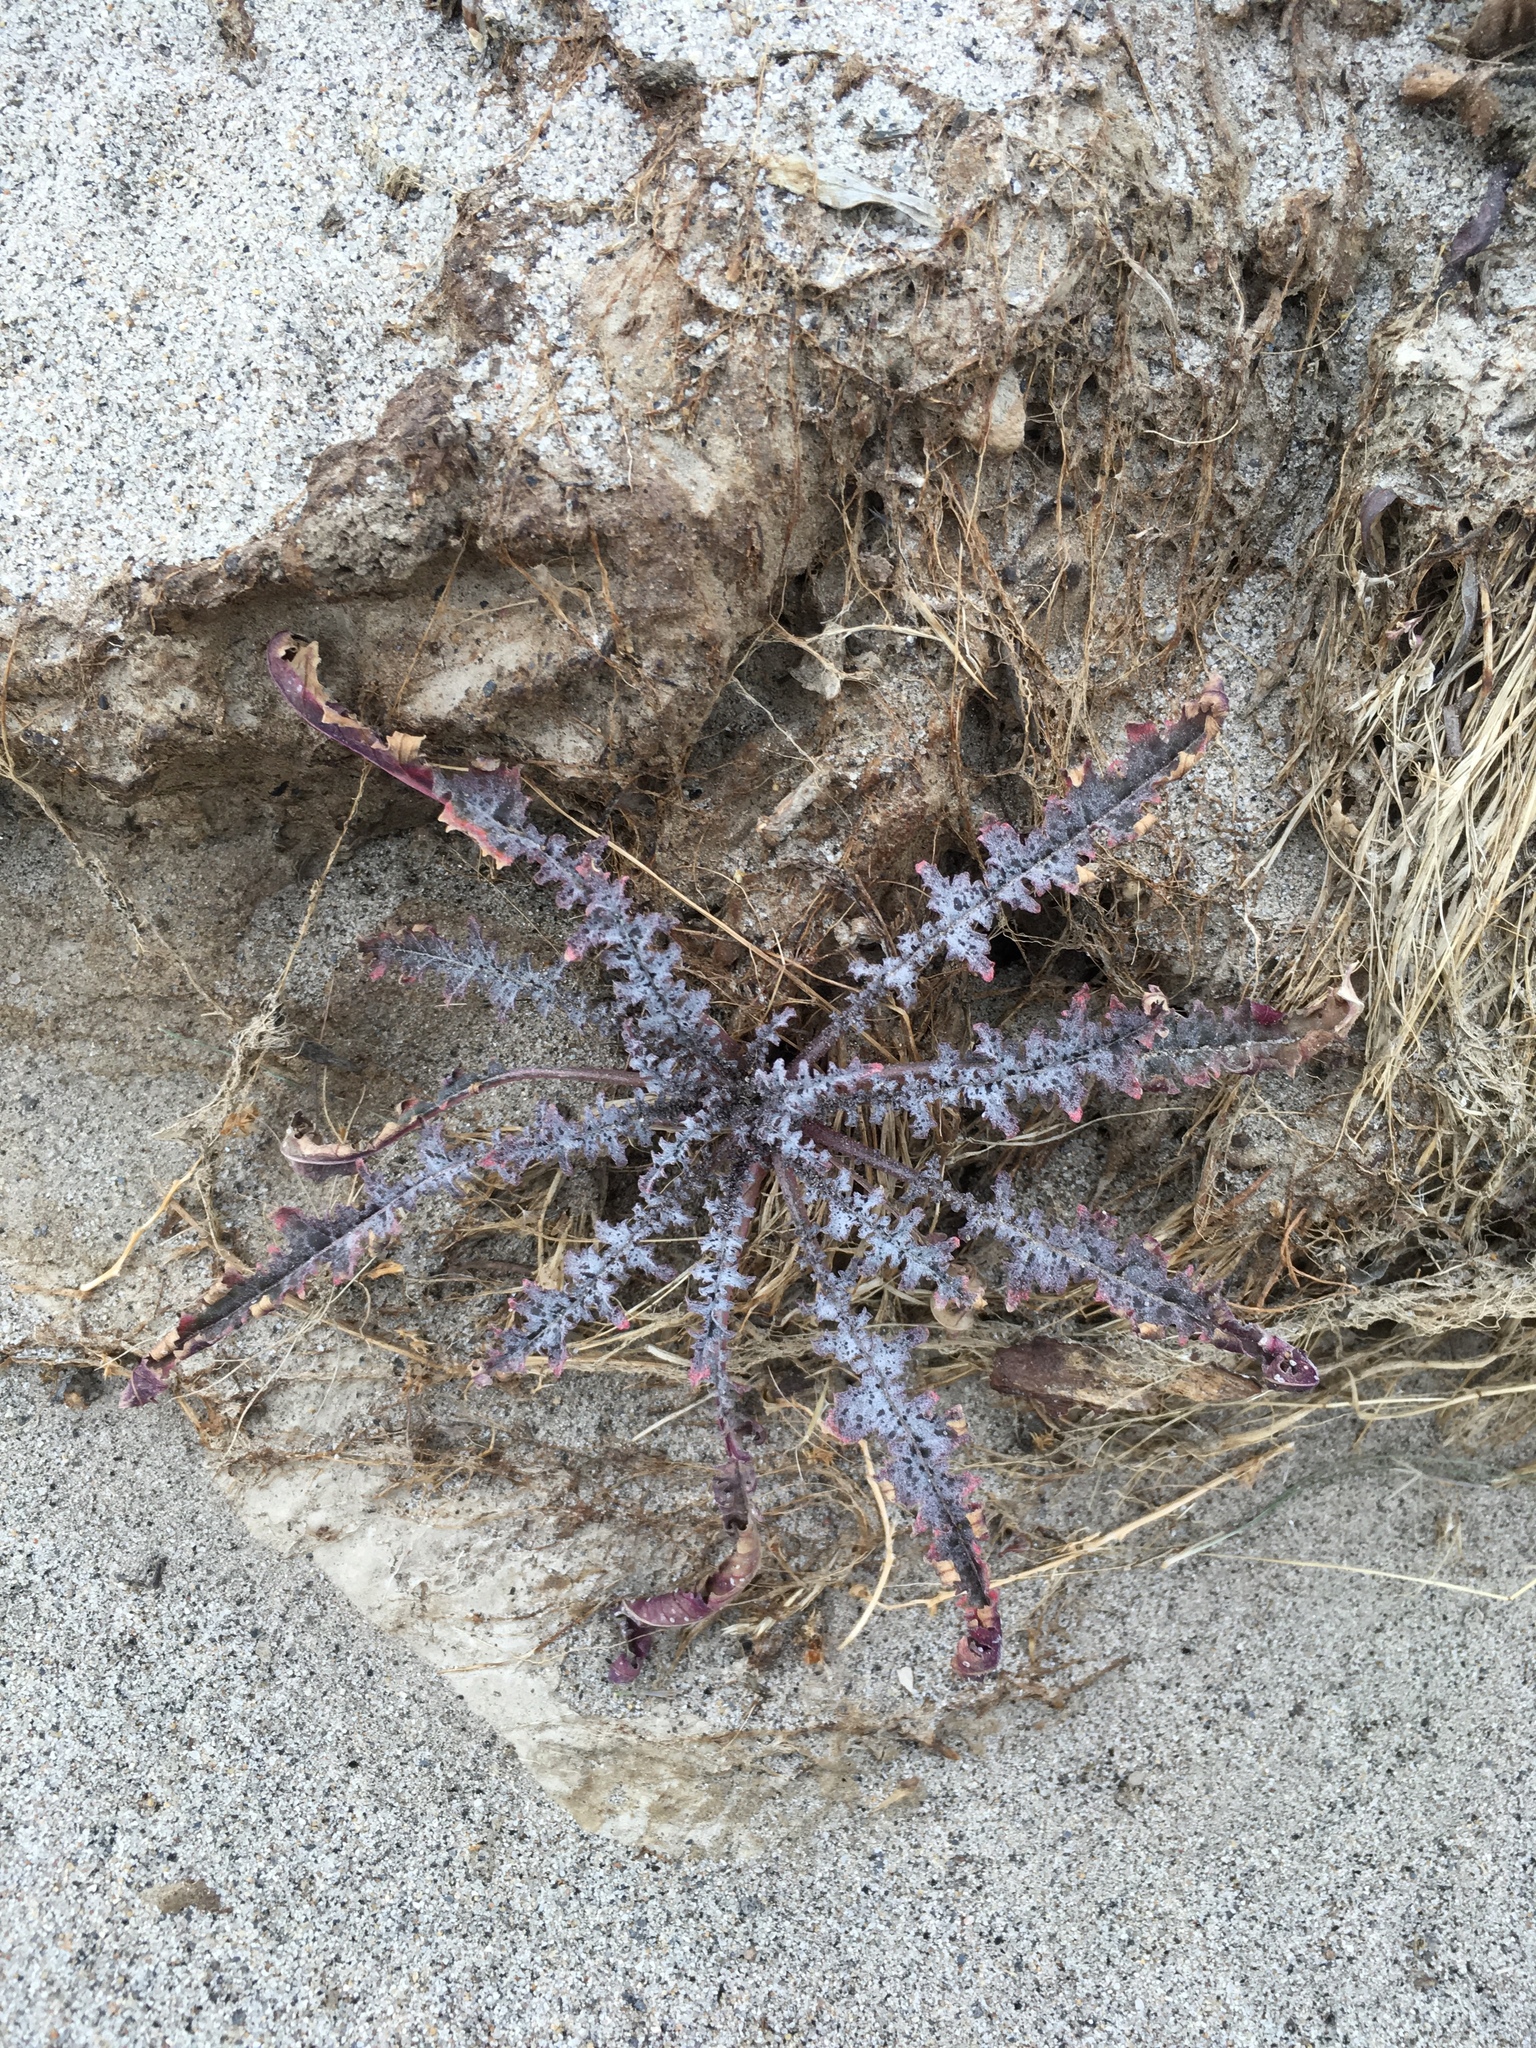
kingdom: Plantae
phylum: Tracheophyta
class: Magnoliopsida
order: Myrtales
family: Onagraceae
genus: Eulobus
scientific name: Eulobus californicus
